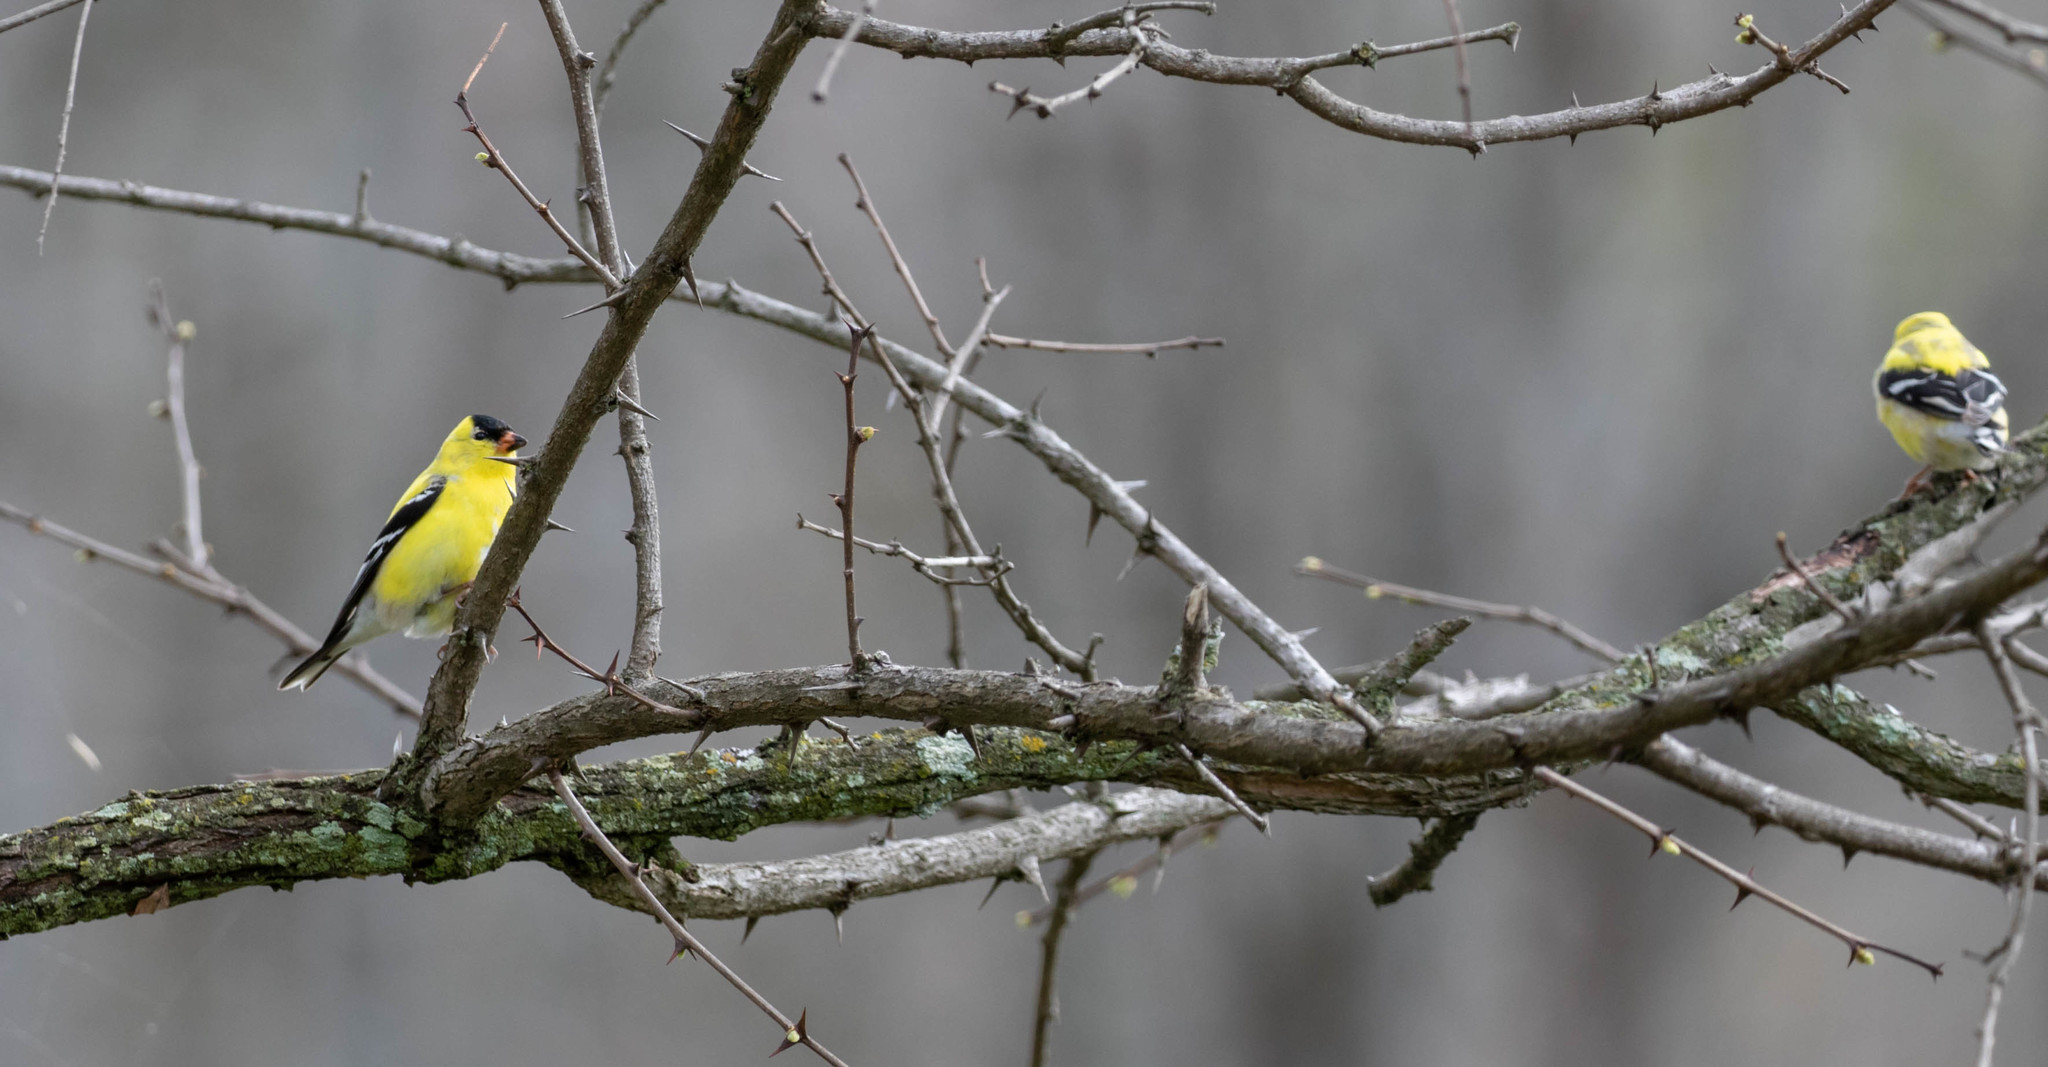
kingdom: Animalia
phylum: Chordata
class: Aves
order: Passeriformes
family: Fringillidae
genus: Spinus
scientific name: Spinus tristis
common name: American goldfinch
